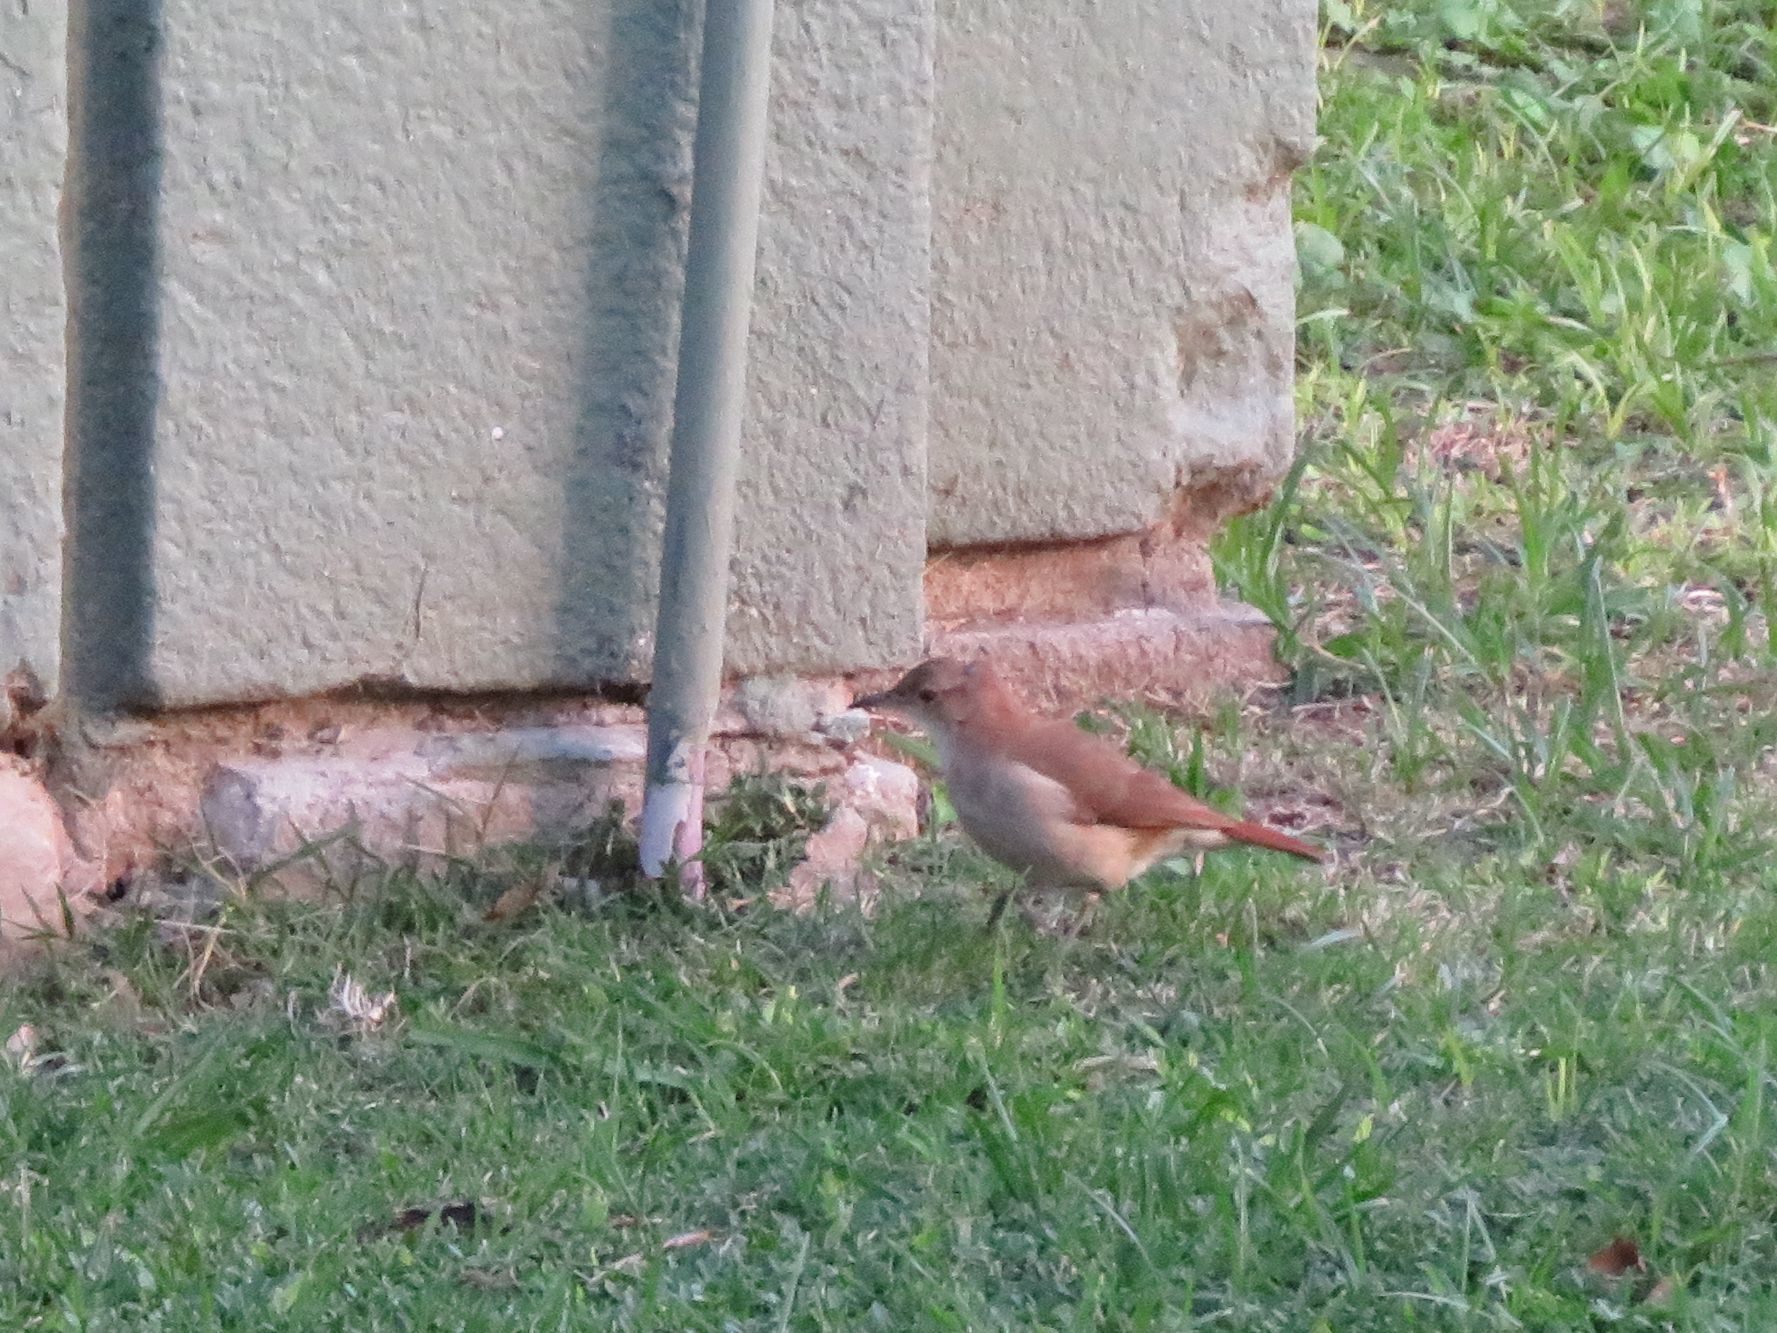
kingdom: Animalia
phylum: Chordata
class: Aves
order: Passeriformes
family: Furnariidae
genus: Furnarius
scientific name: Furnarius rufus
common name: Rufous hornero
